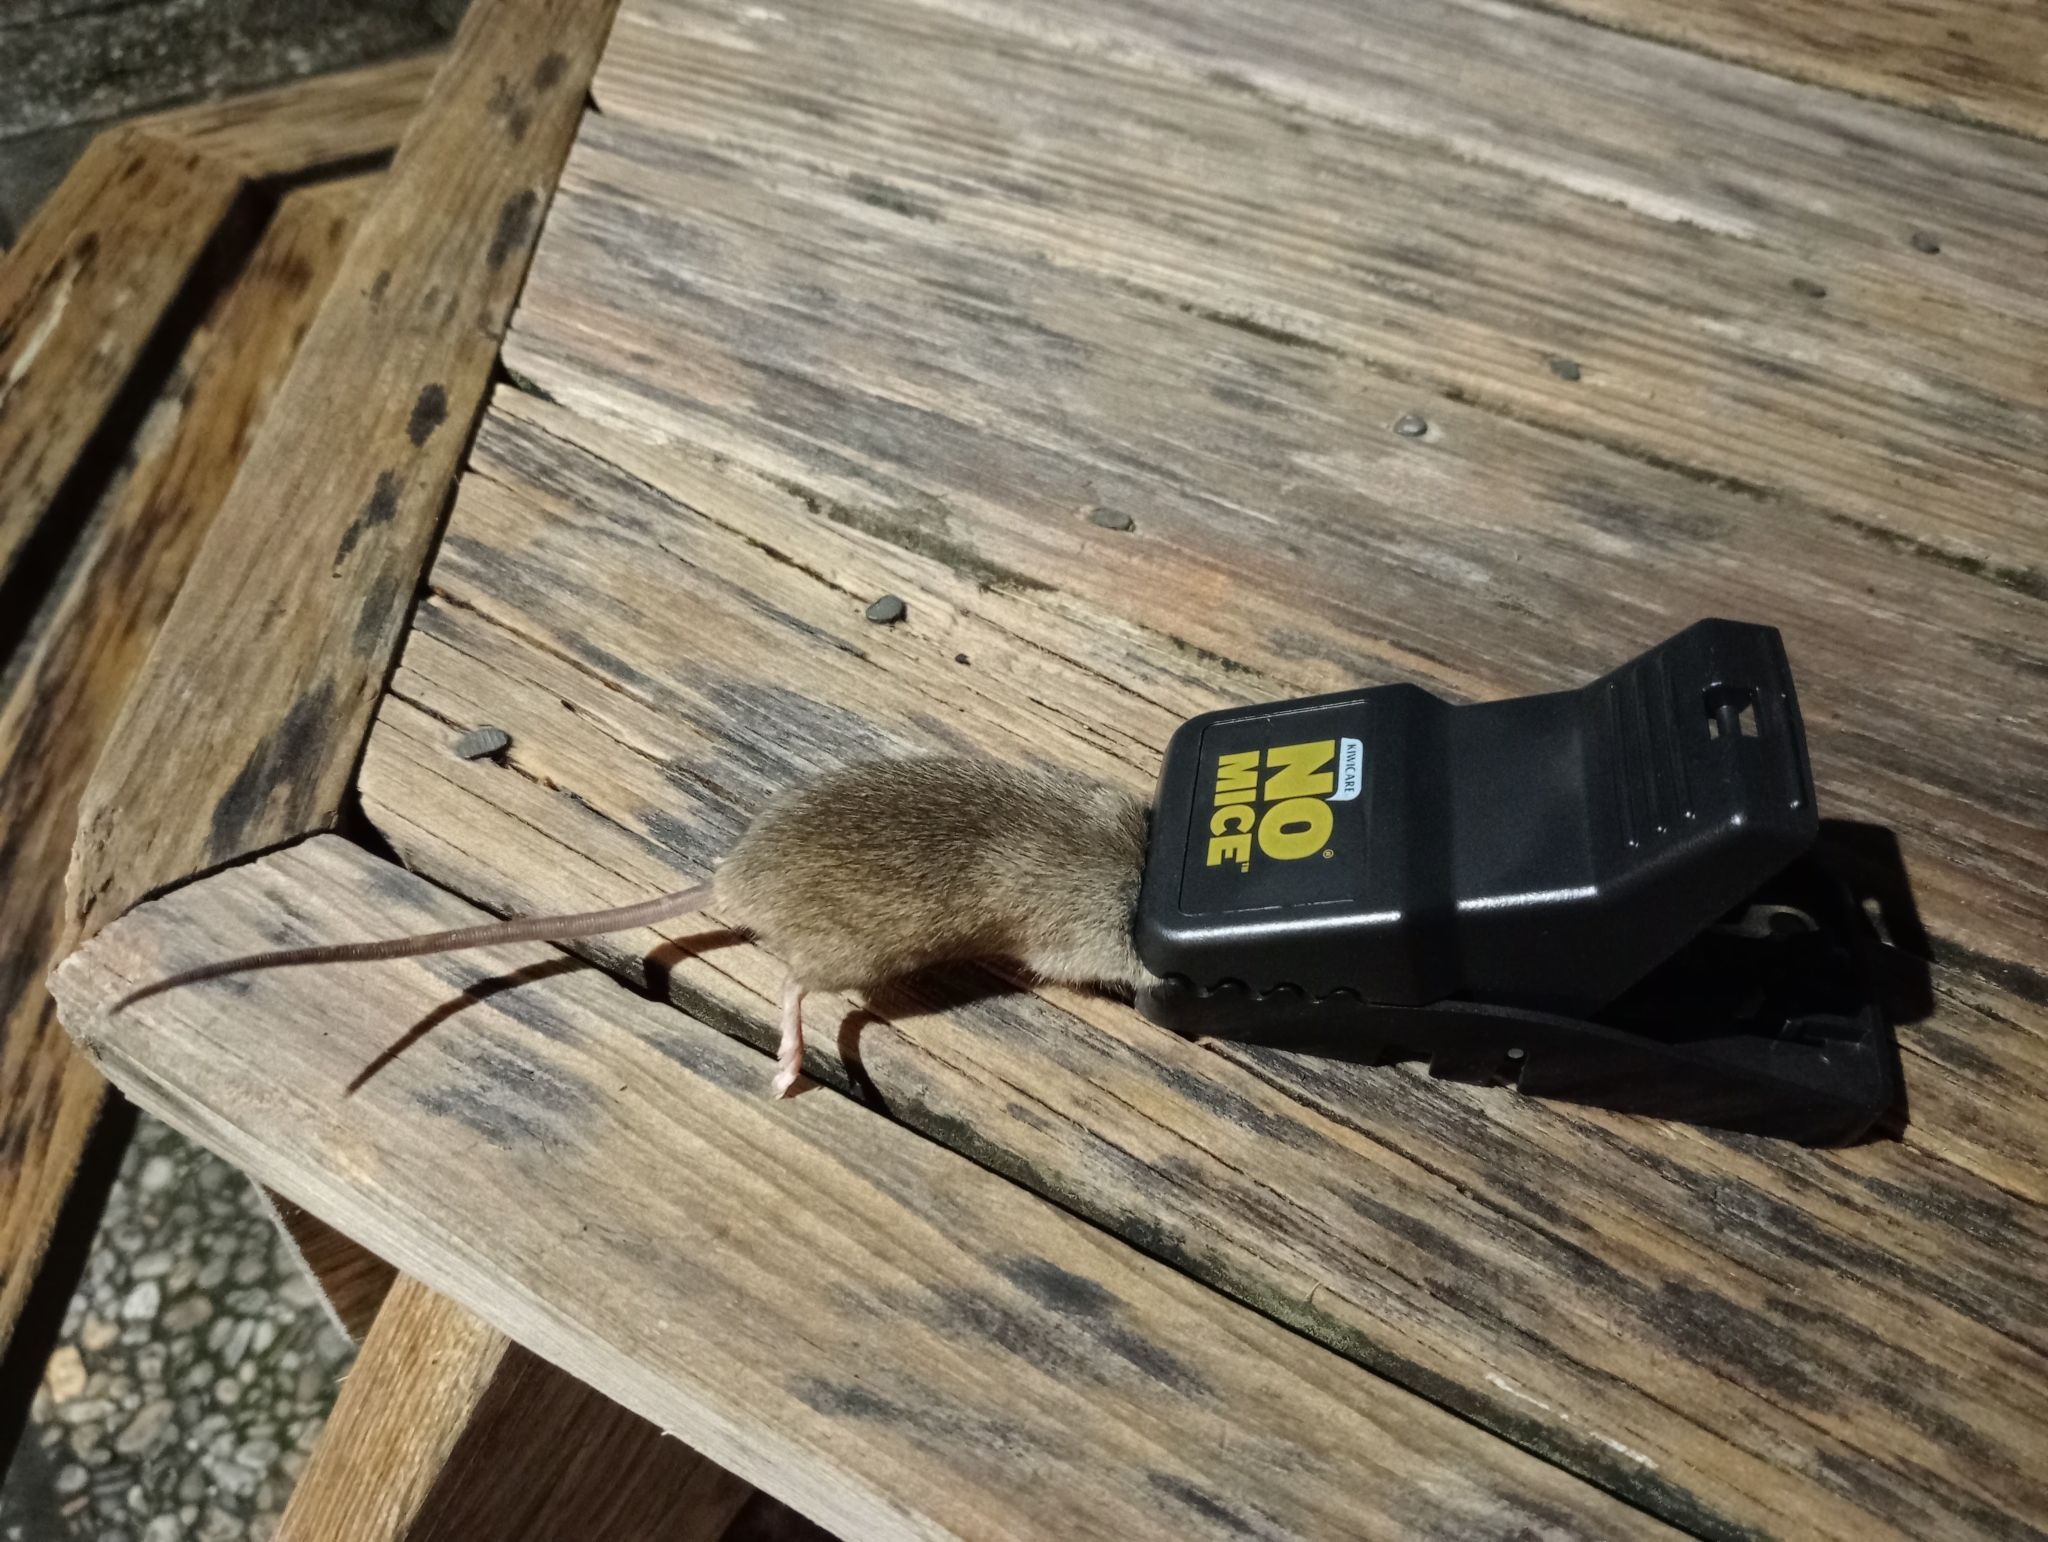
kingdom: Animalia
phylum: Chordata
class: Mammalia
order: Rodentia
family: Muridae
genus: Mus
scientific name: Mus musculus
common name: House mouse
